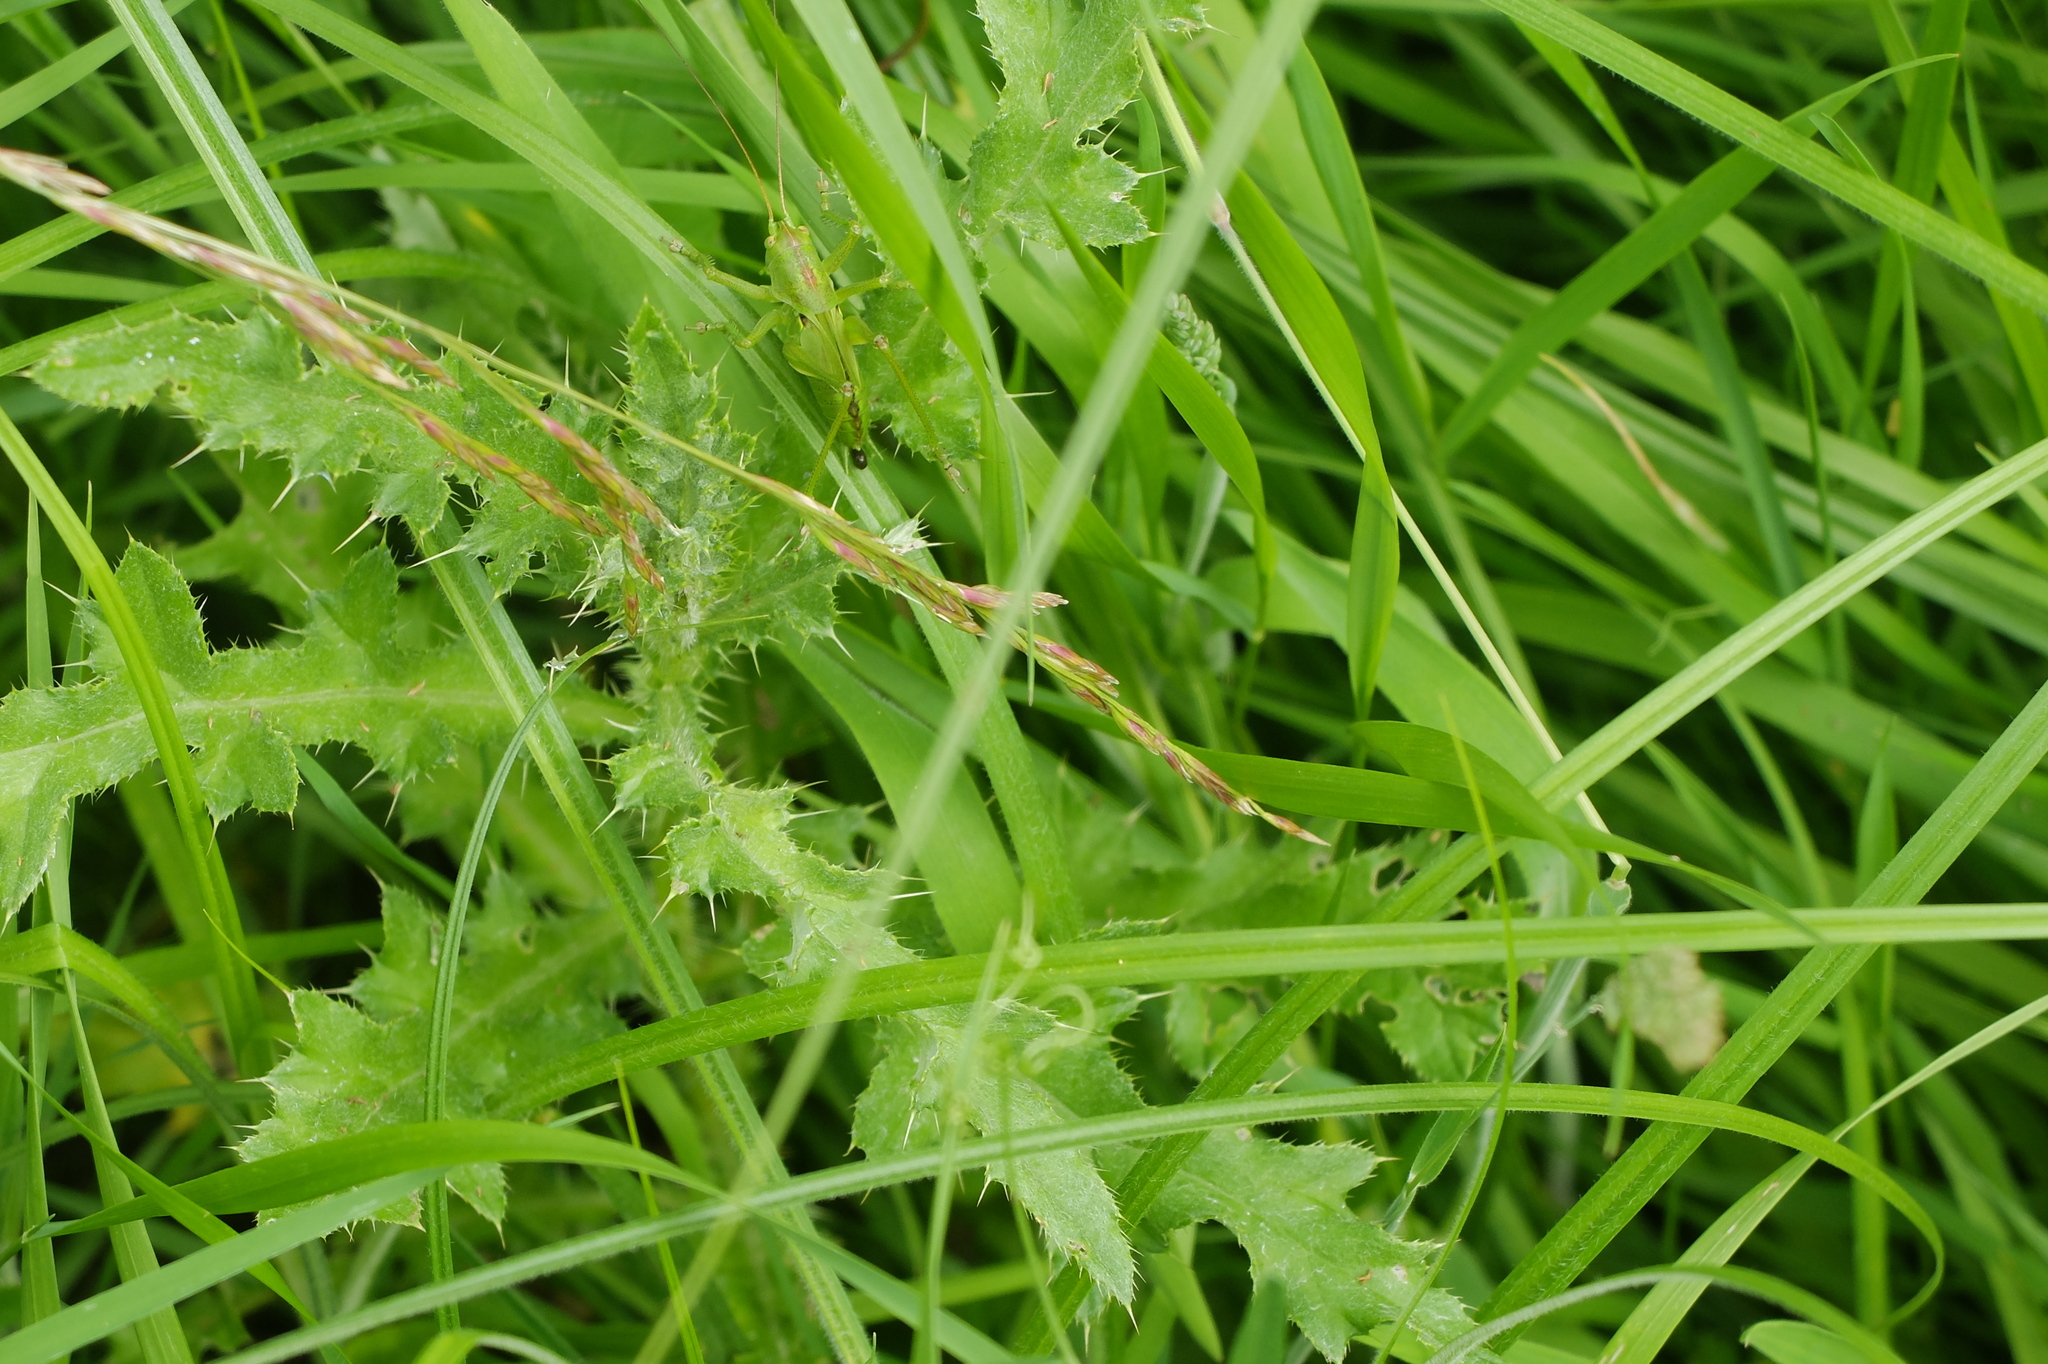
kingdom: Animalia
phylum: Arthropoda
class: Insecta
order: Orthoptera
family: Tettigoniidae
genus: Tettigonia
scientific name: Tettigonia viridissima
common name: Great green bush-cricket
